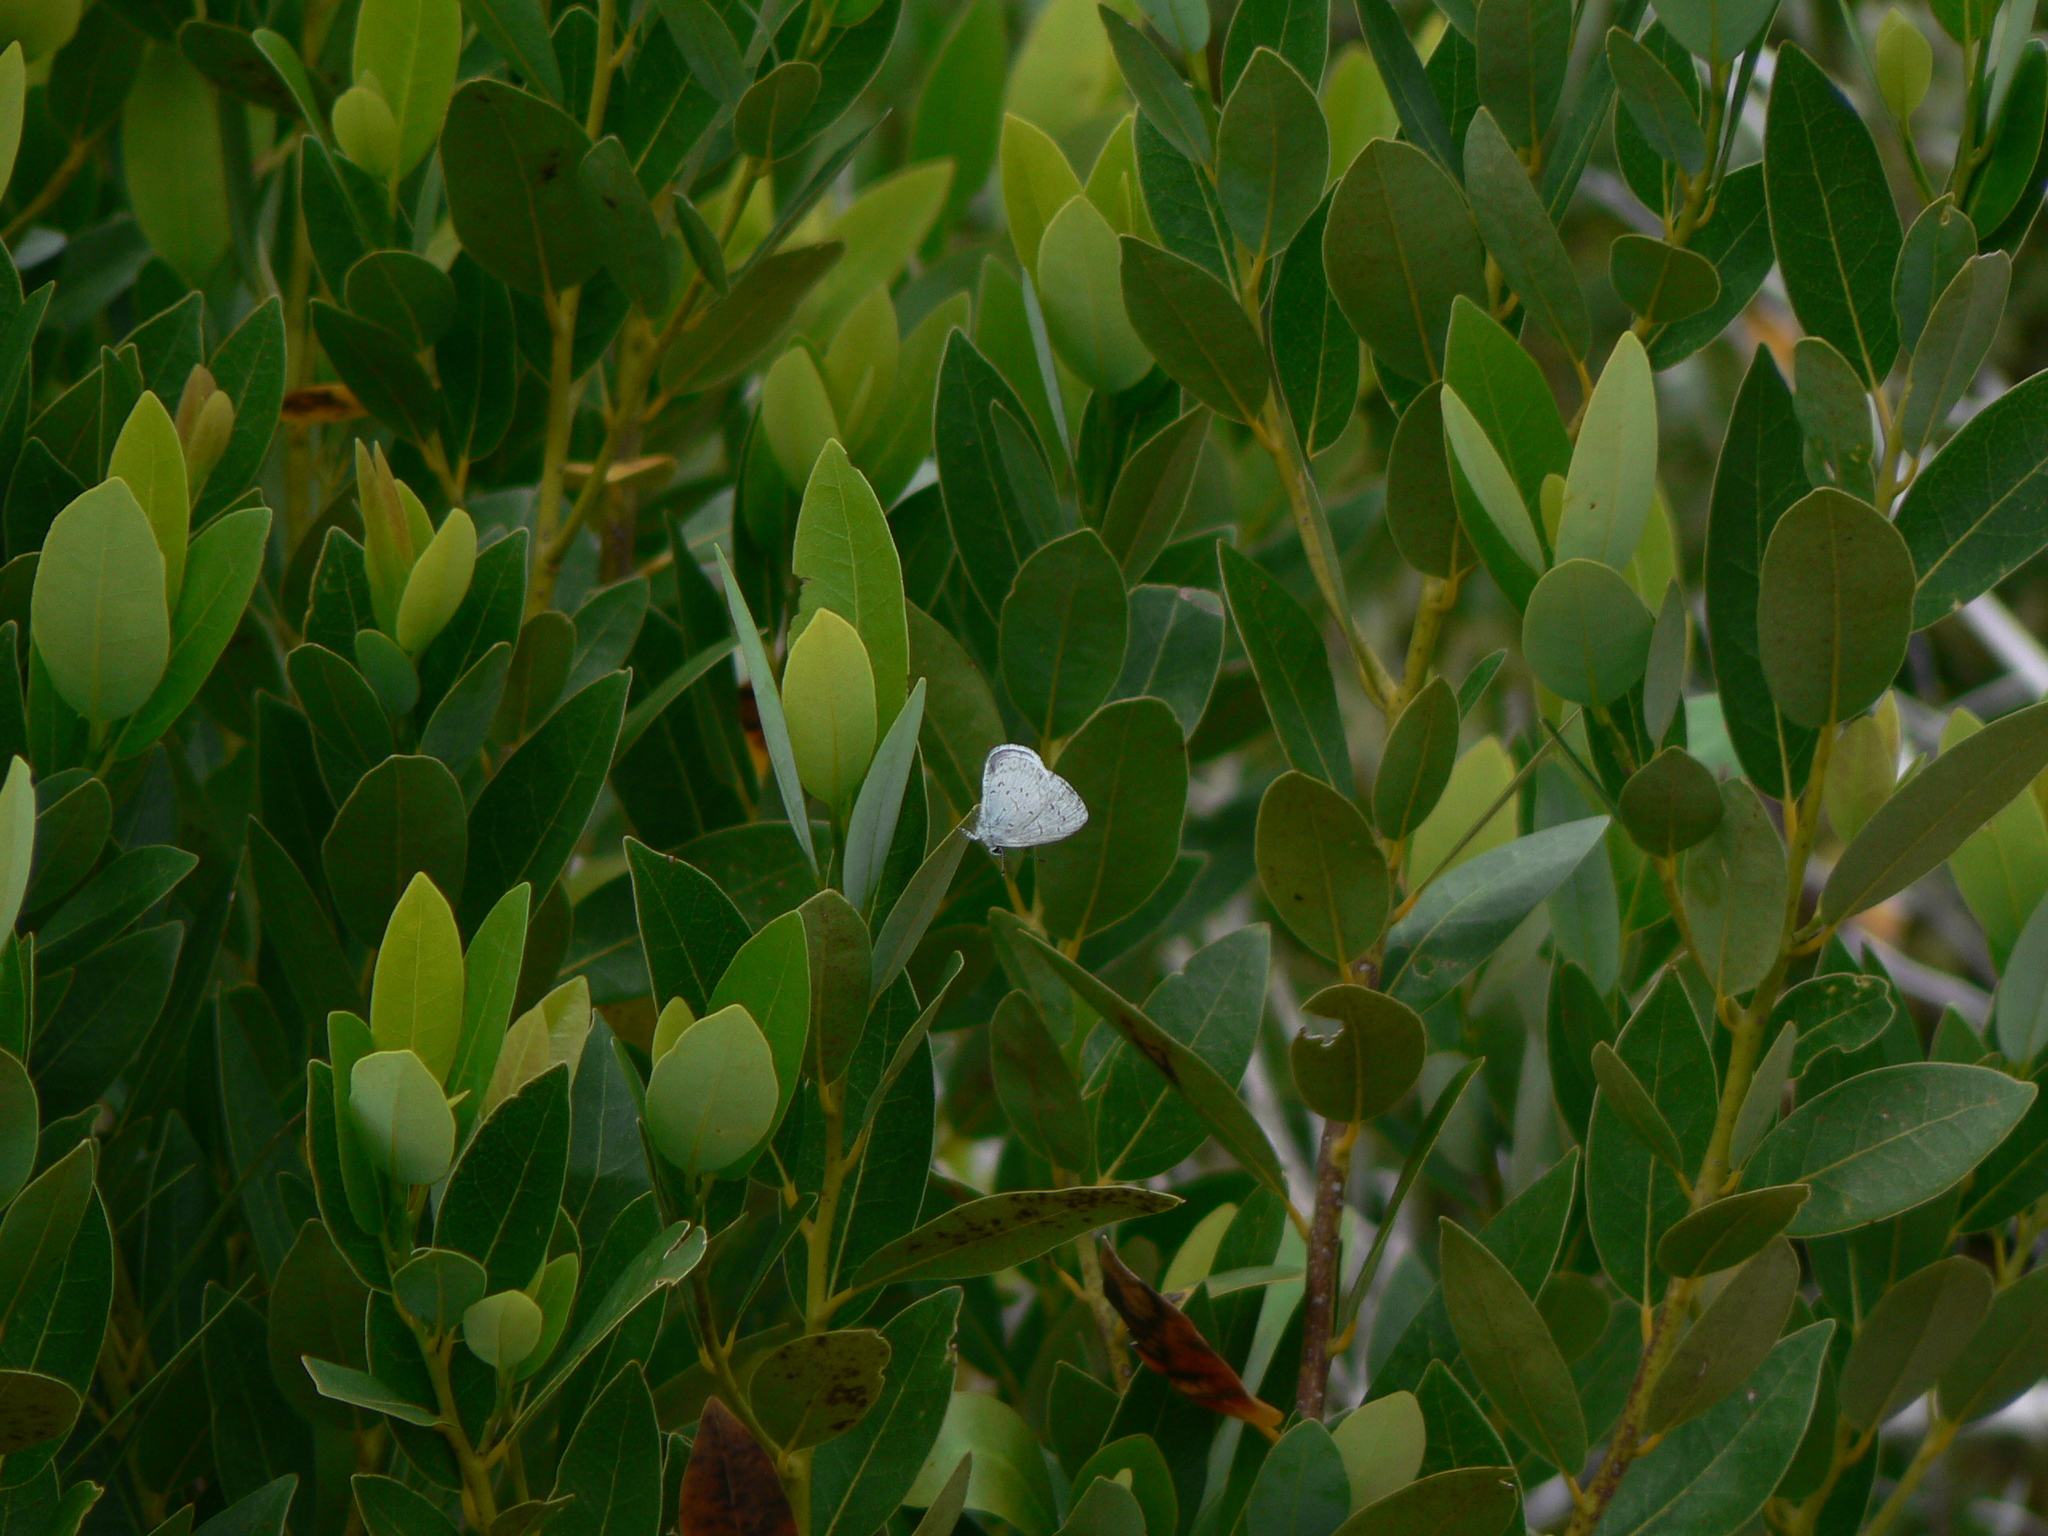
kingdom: Animalia
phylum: Arthropoda
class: Insecta
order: Lepidoptera
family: Lycaenidae
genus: Celastrina
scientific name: Celastrina ladon
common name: Spring azure
